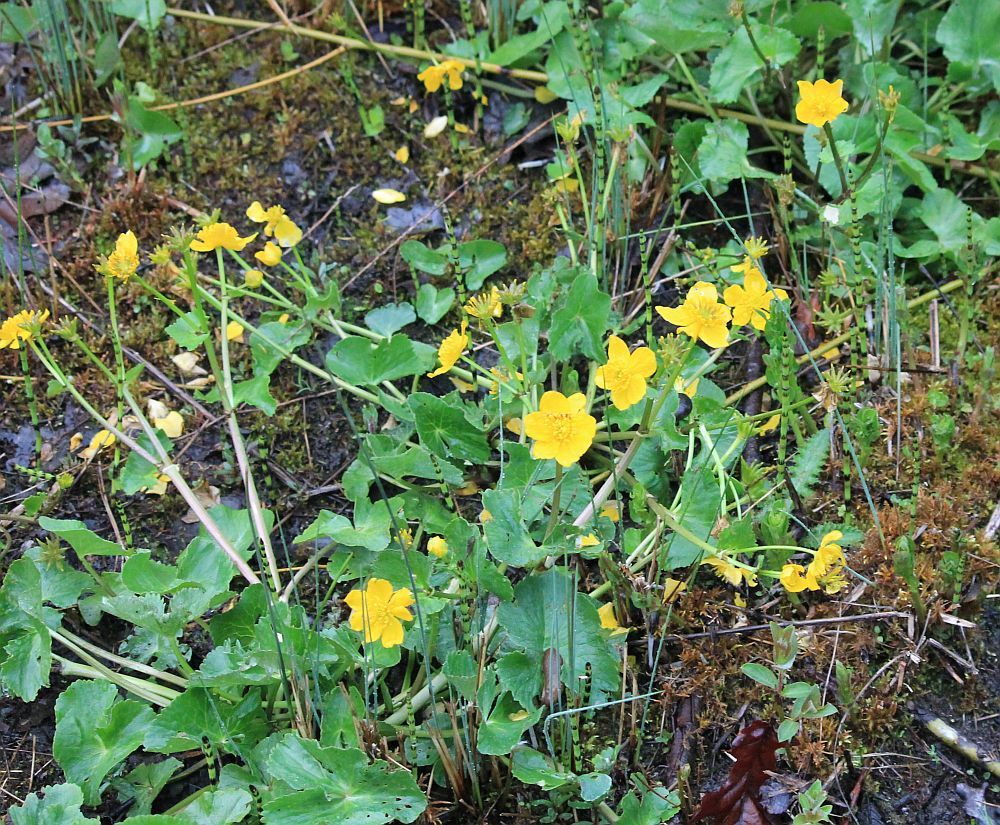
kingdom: Plantae
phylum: Tracheophyta
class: Magnoliopsida
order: Ranunculales
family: Ranunculaceae
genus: Caltha
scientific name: Caltha palustris
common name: Marsh marigold
